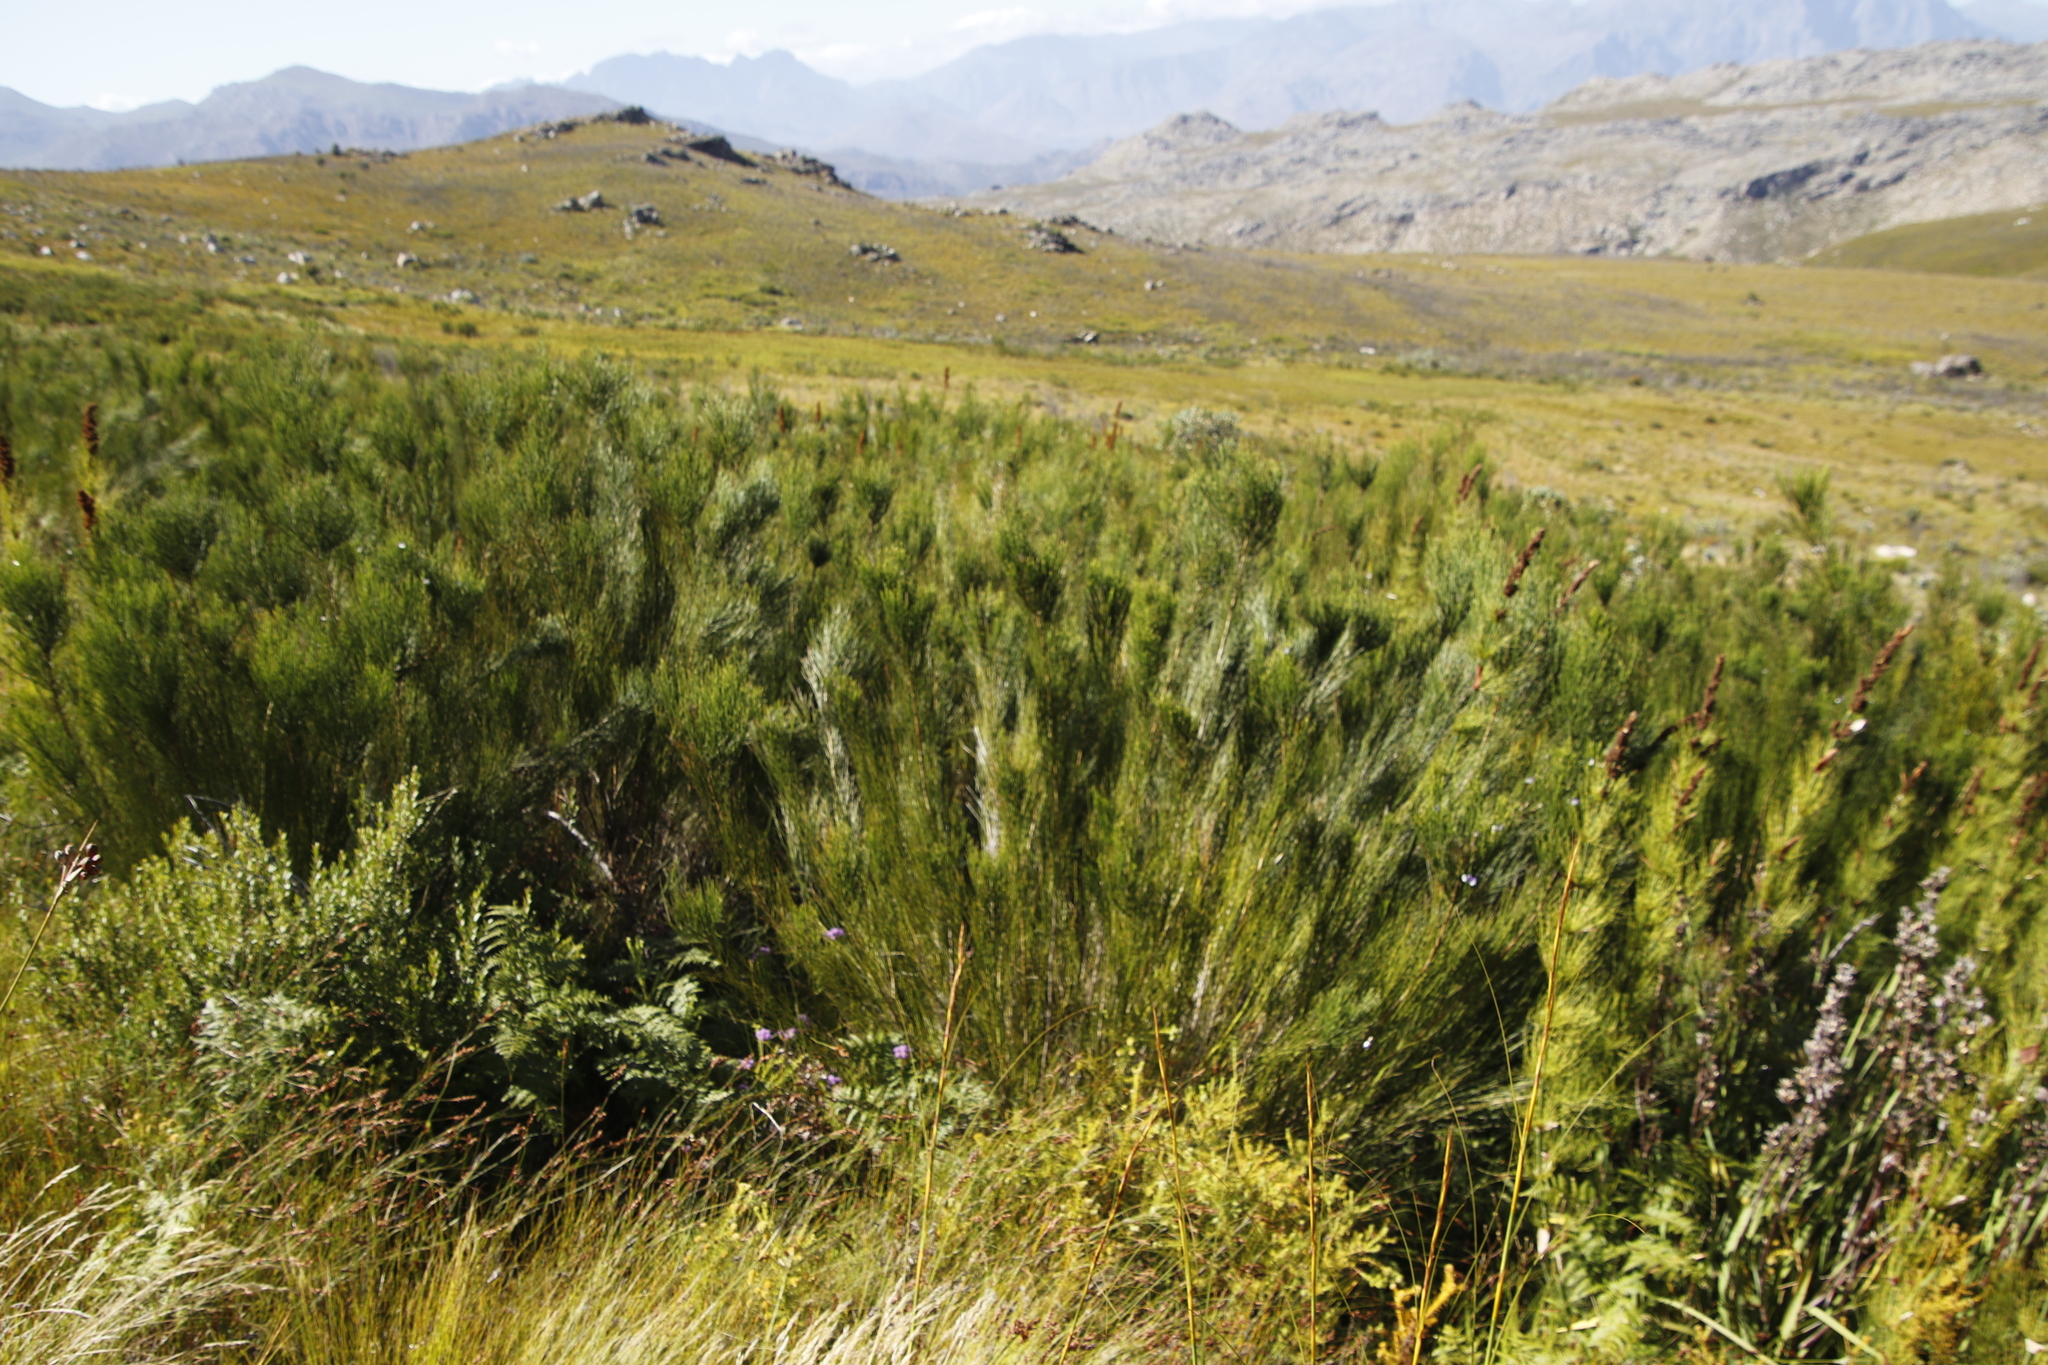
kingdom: Plantae
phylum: Tracheophyta
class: Magnoliopsida
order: Fabales
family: Fabaceae
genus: Psoralea
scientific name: Psoralea usitata
